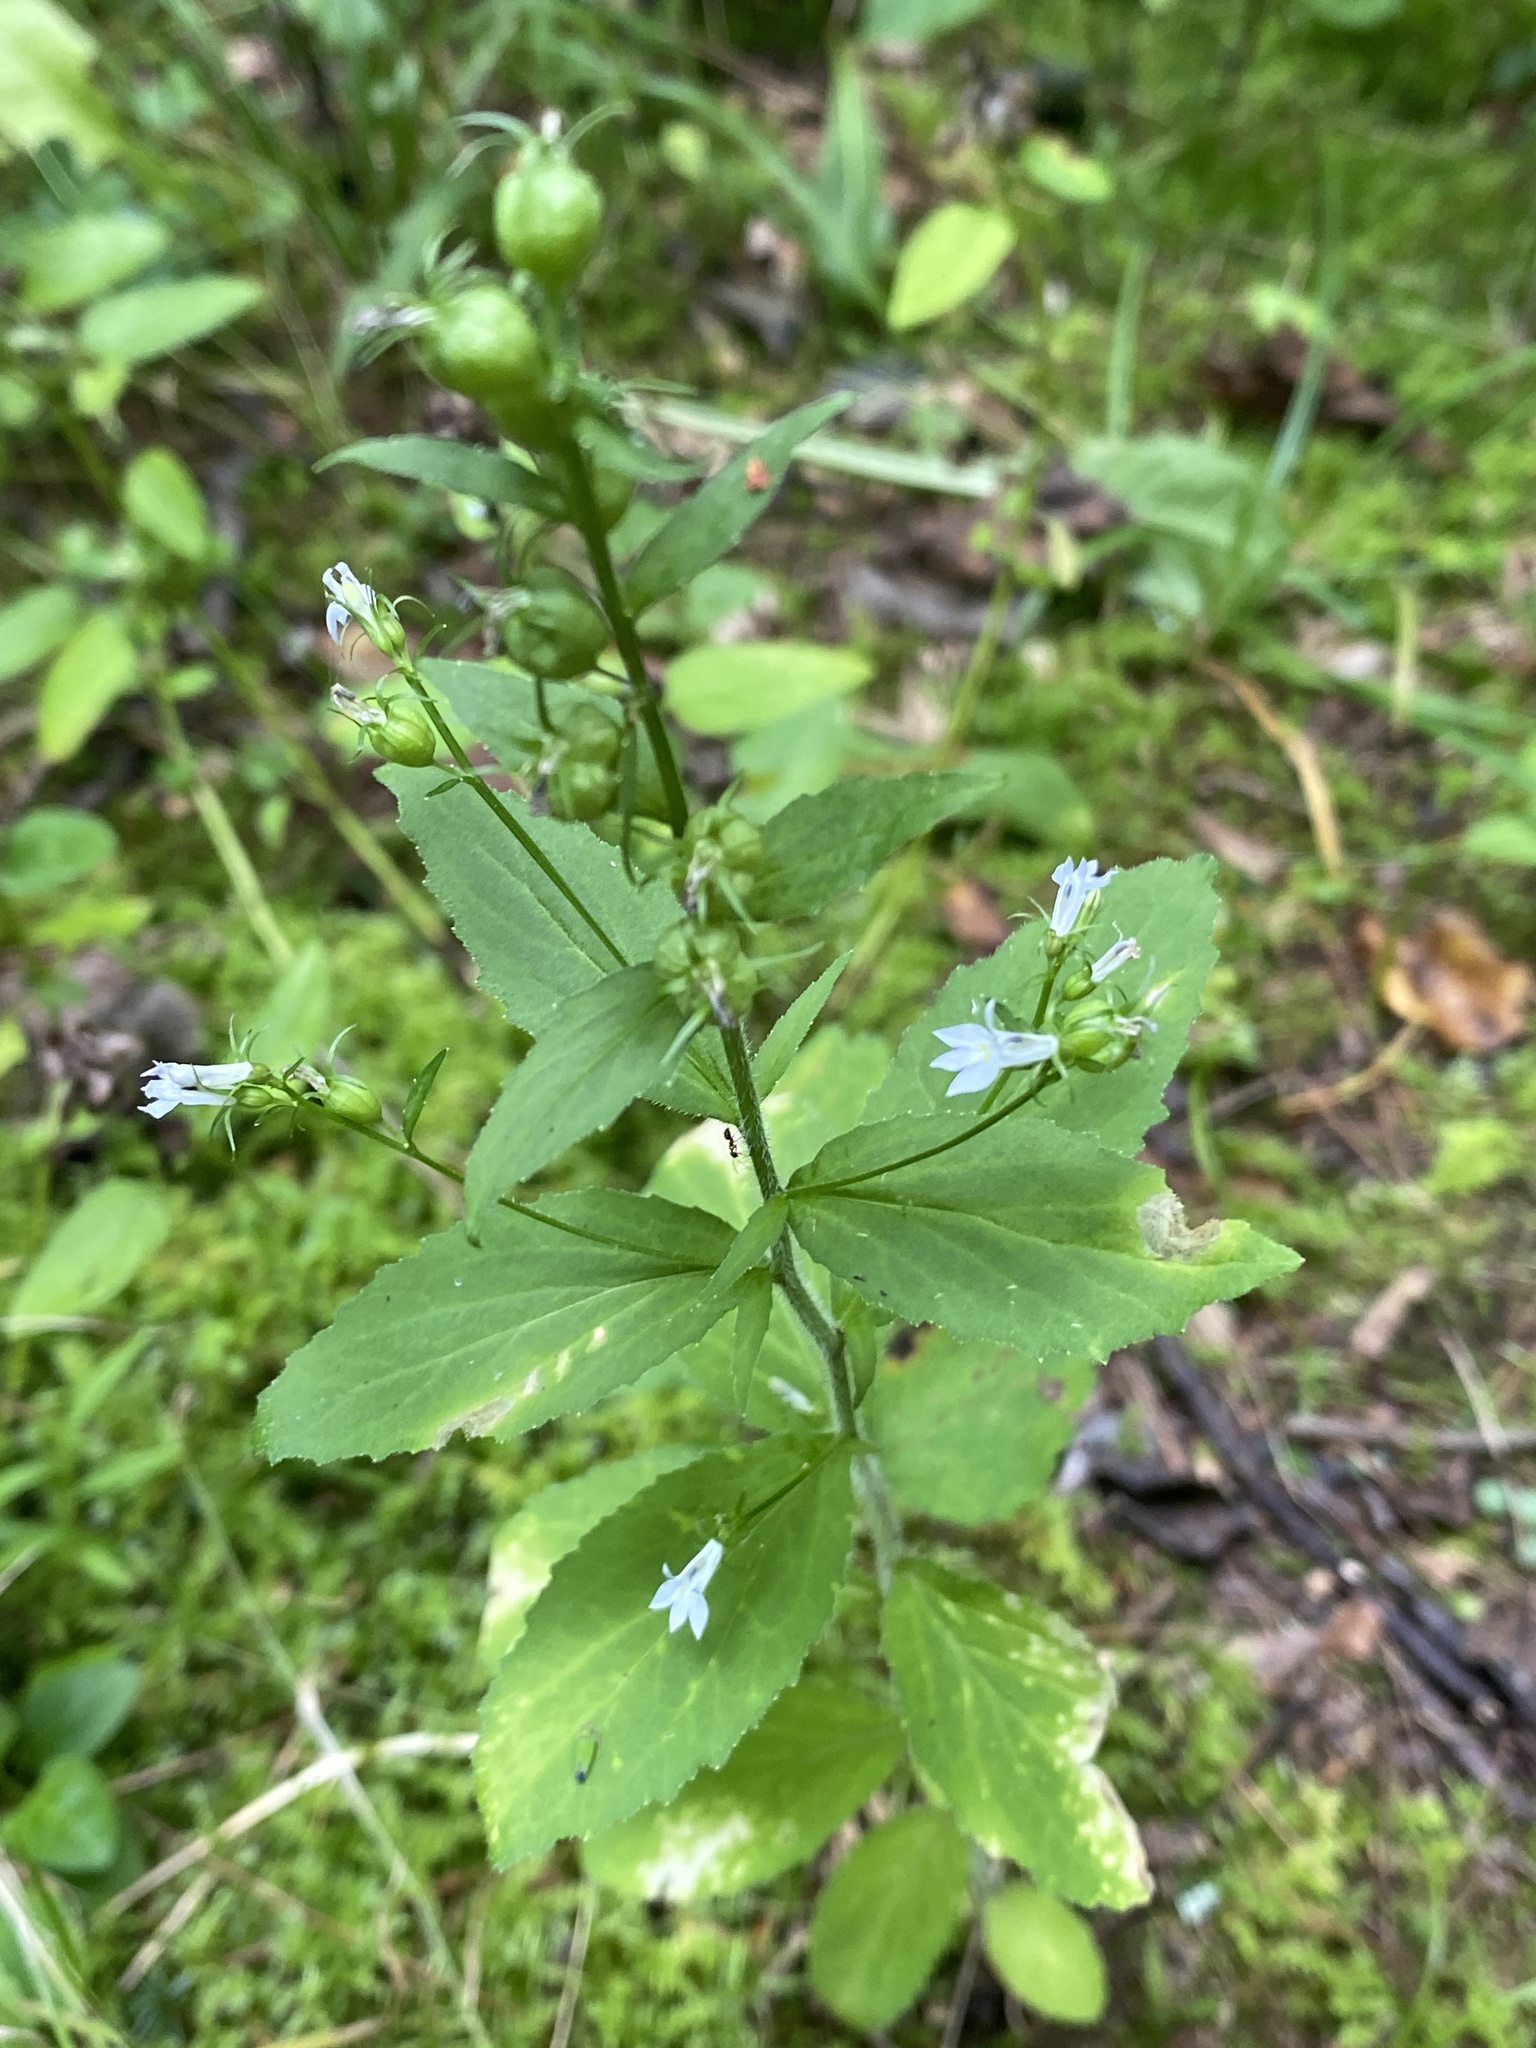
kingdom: Plantae
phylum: Tracheophyta
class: Magnoliopsida
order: Asterales
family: Campanulaceae
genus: Lobelia
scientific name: Lobelia inflata
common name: Indian tobacco
